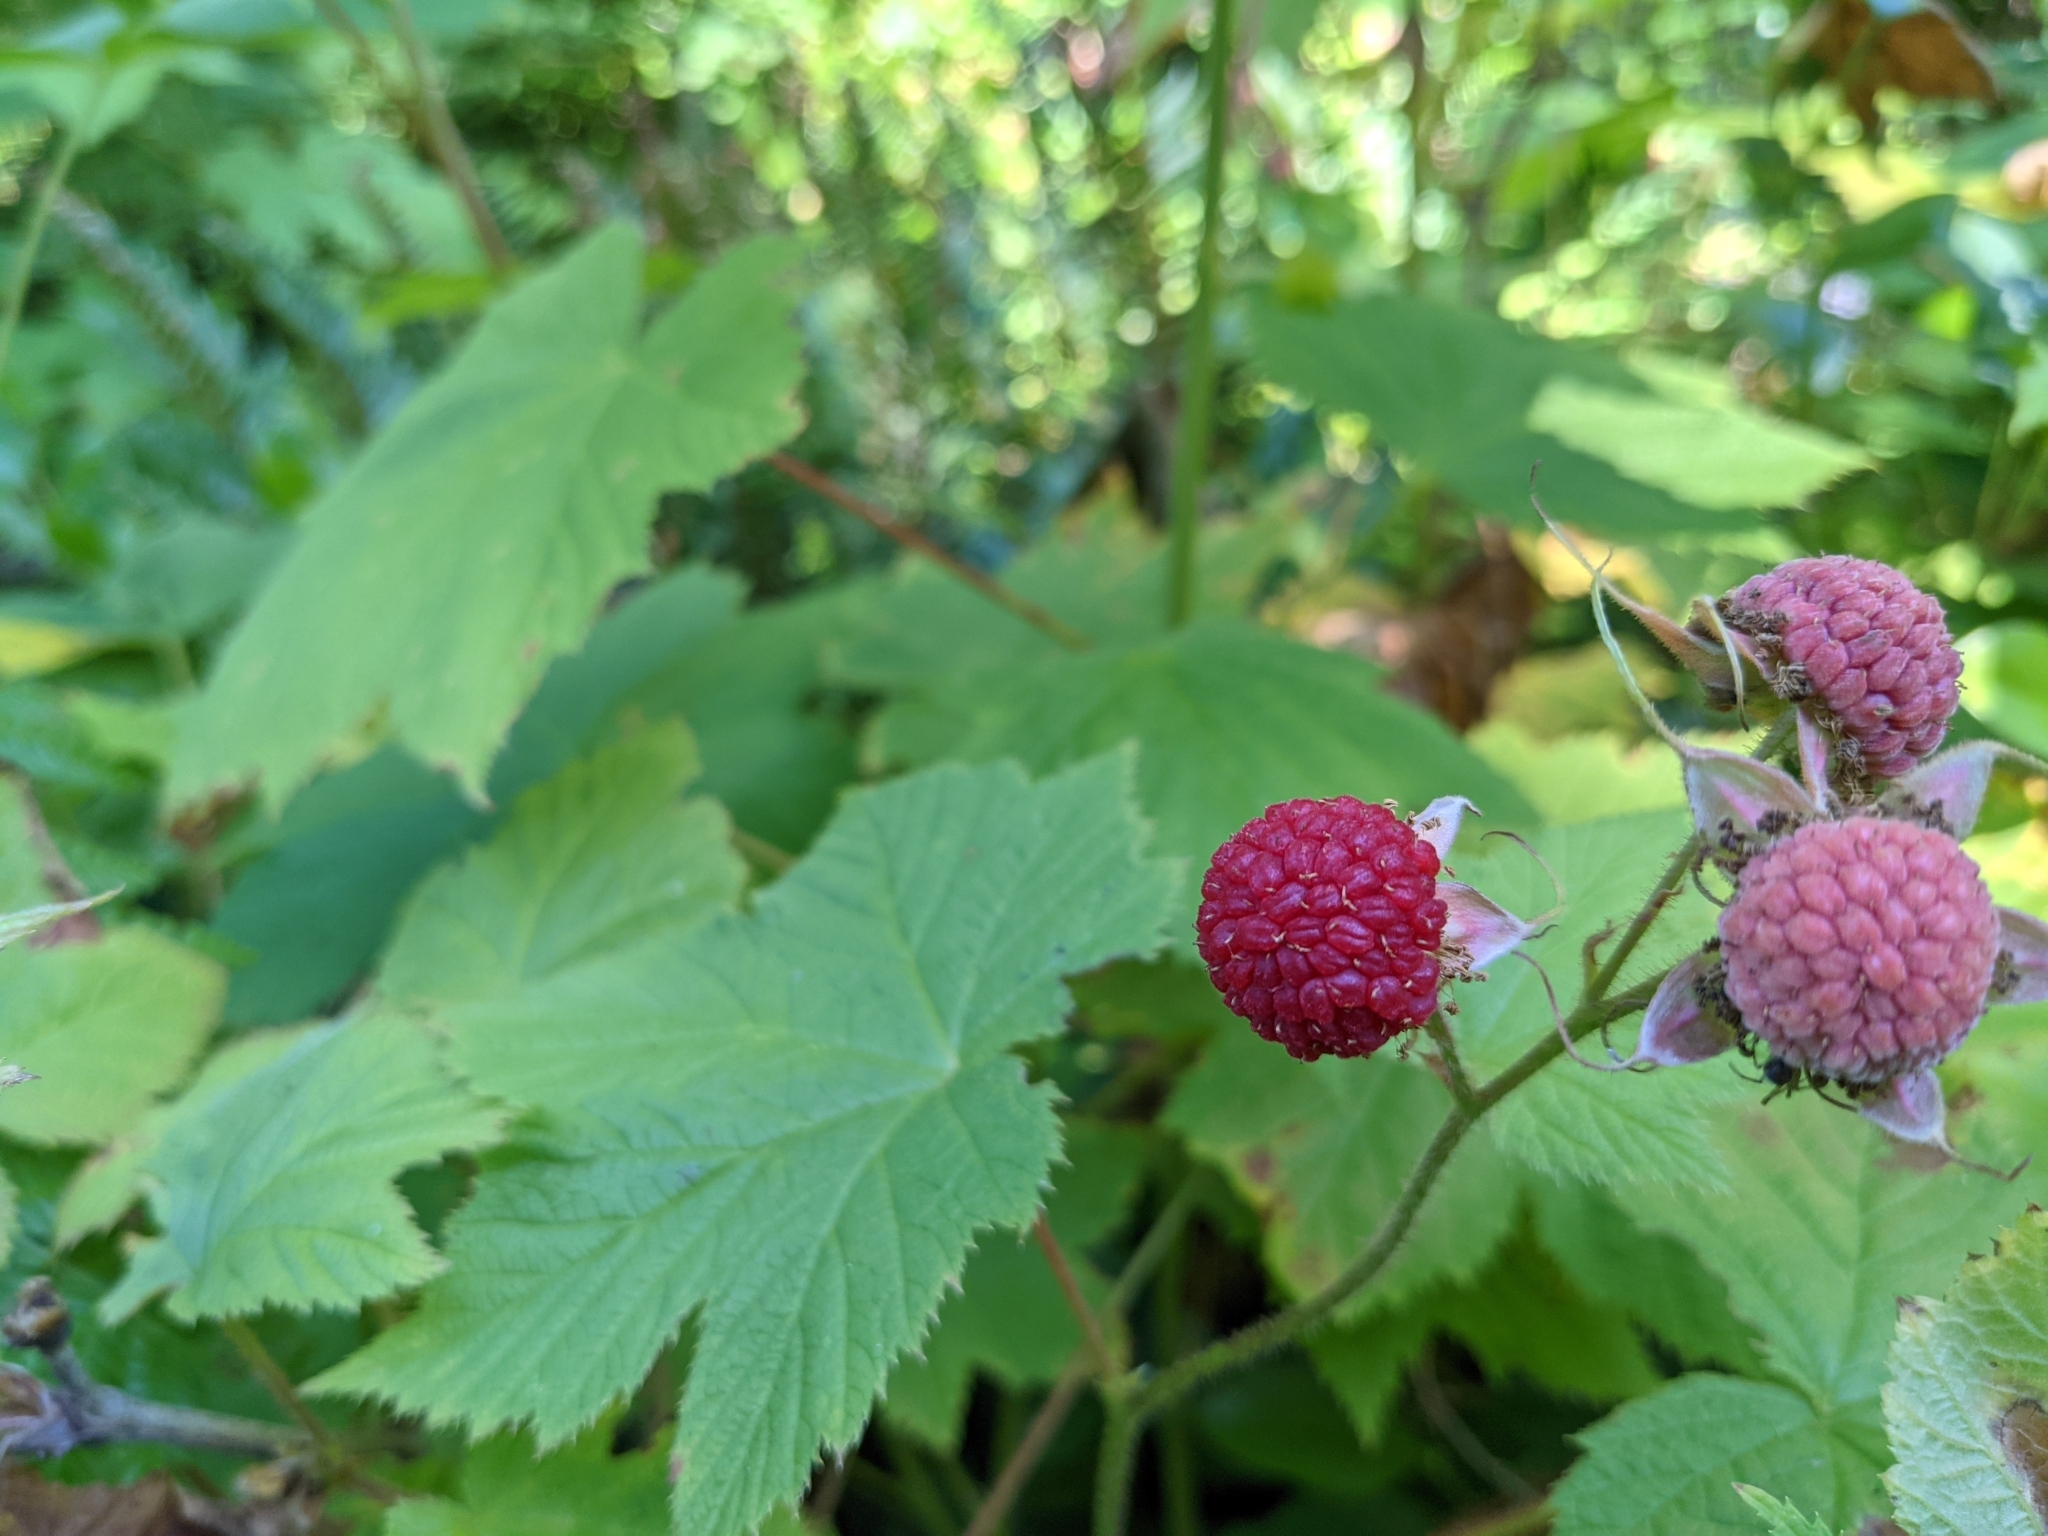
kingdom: Plantae
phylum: Tracheophyta
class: Magnoliopsida
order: Rosales
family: Rosaceae
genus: Rubus
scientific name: Rubus parviflorus
